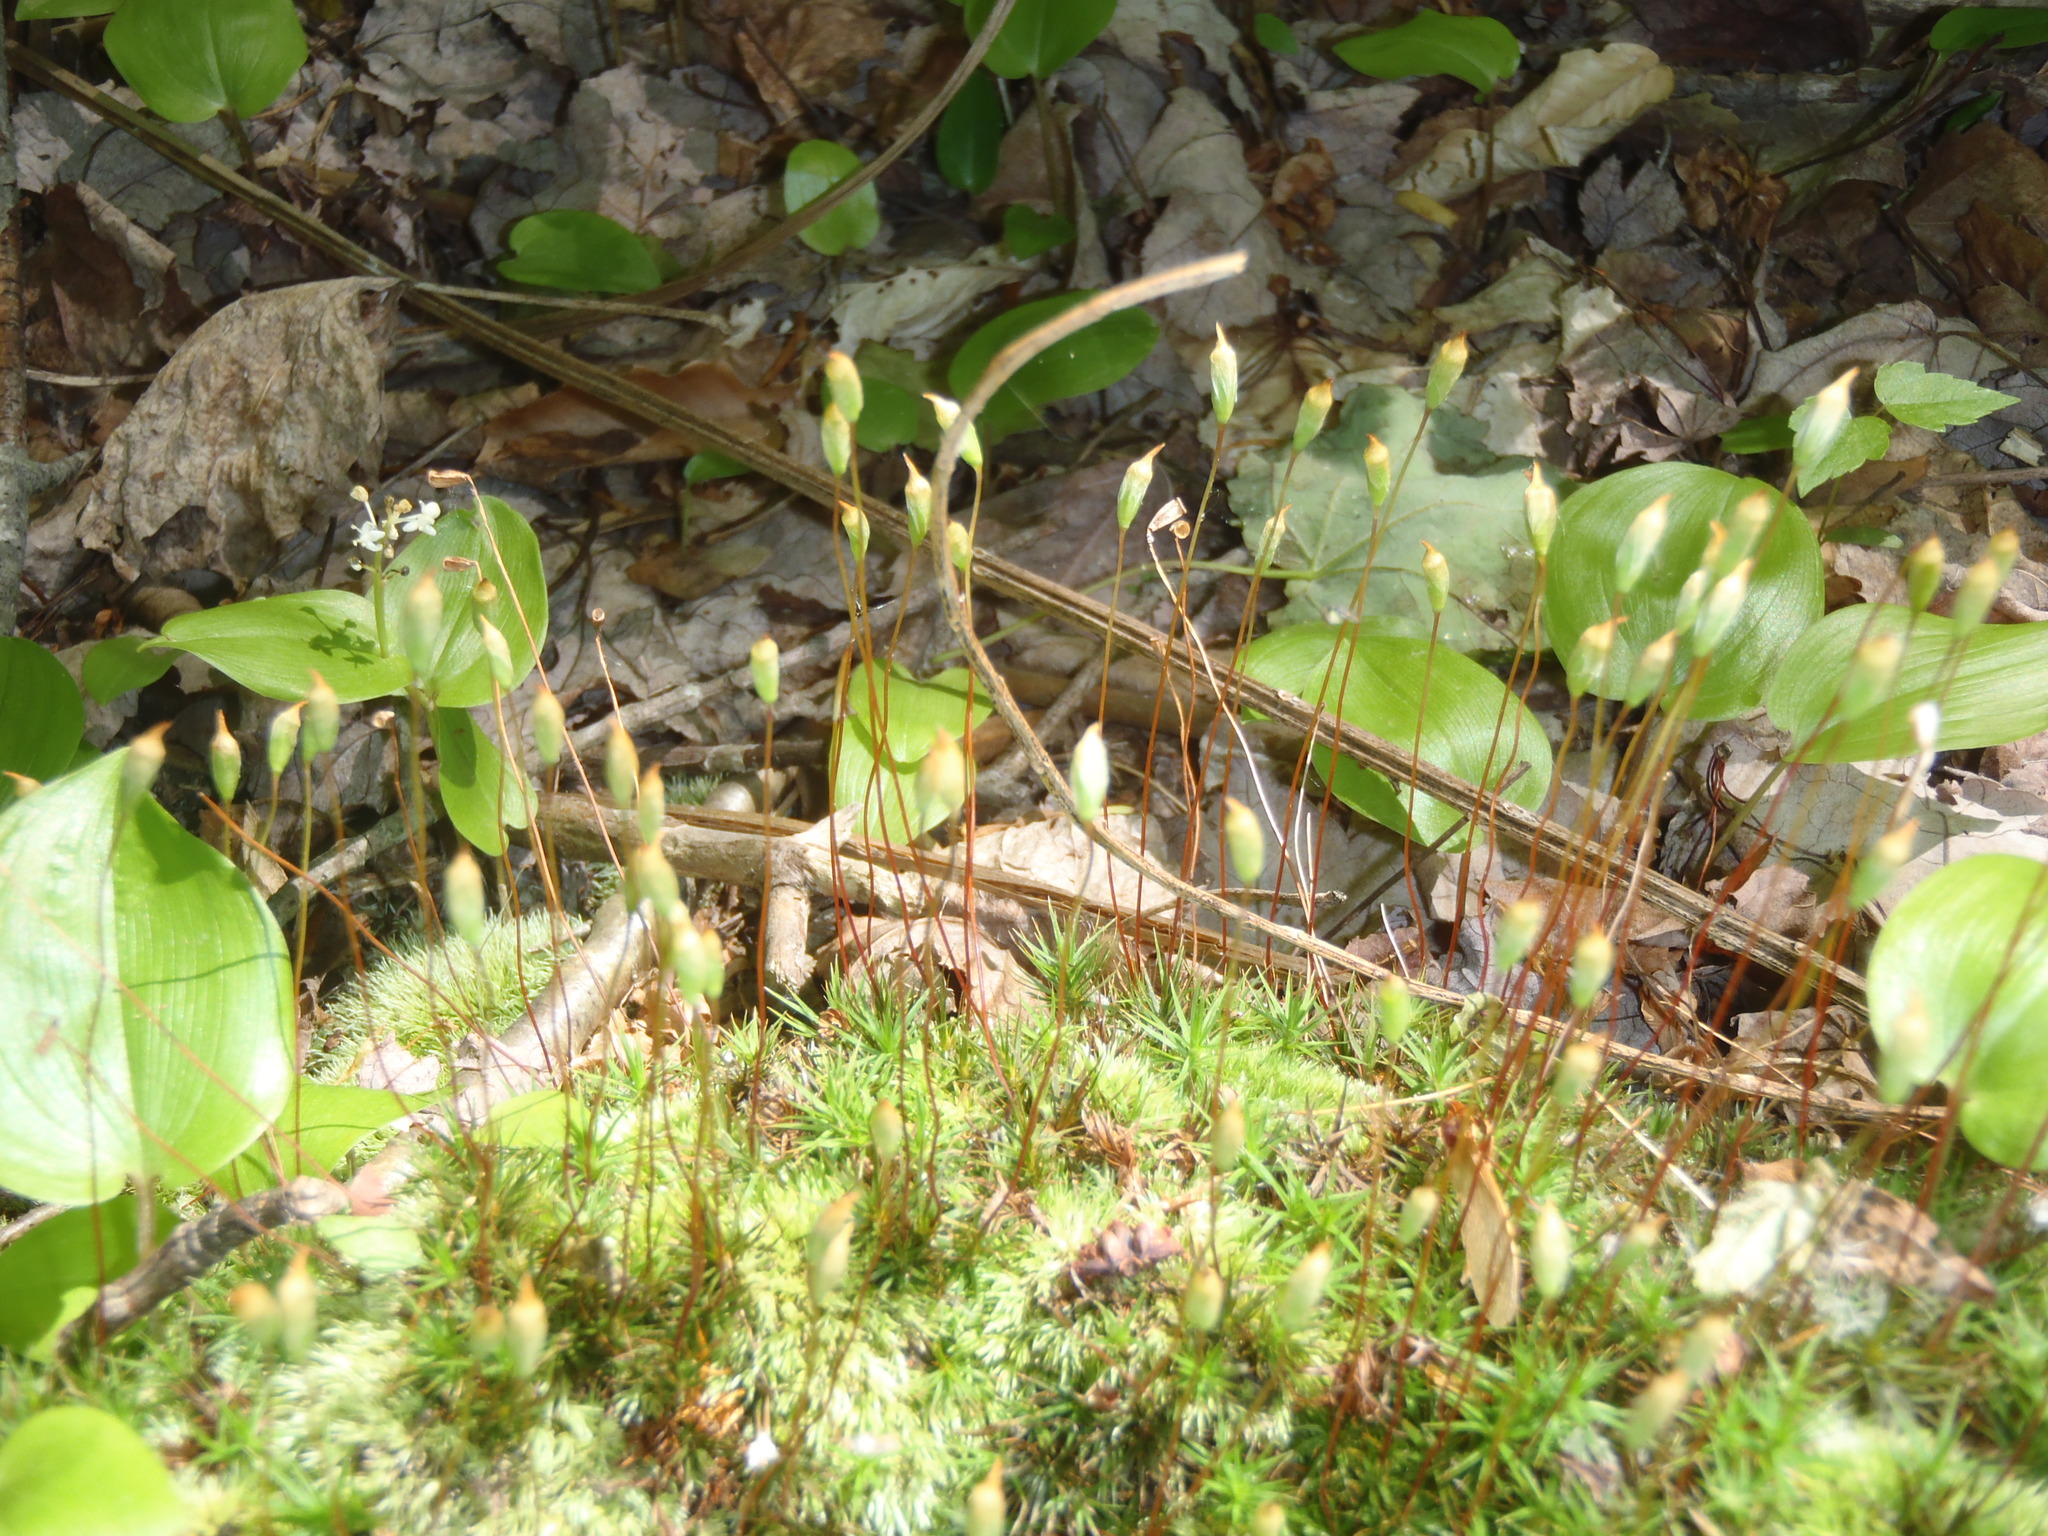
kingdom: Plantae
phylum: Bryophyta
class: Polytrichopsida
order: Polytrichales
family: Polytrichaceae
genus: Polytrichum
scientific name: Polytrichum ohioense
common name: Ohio polytrichum moss
